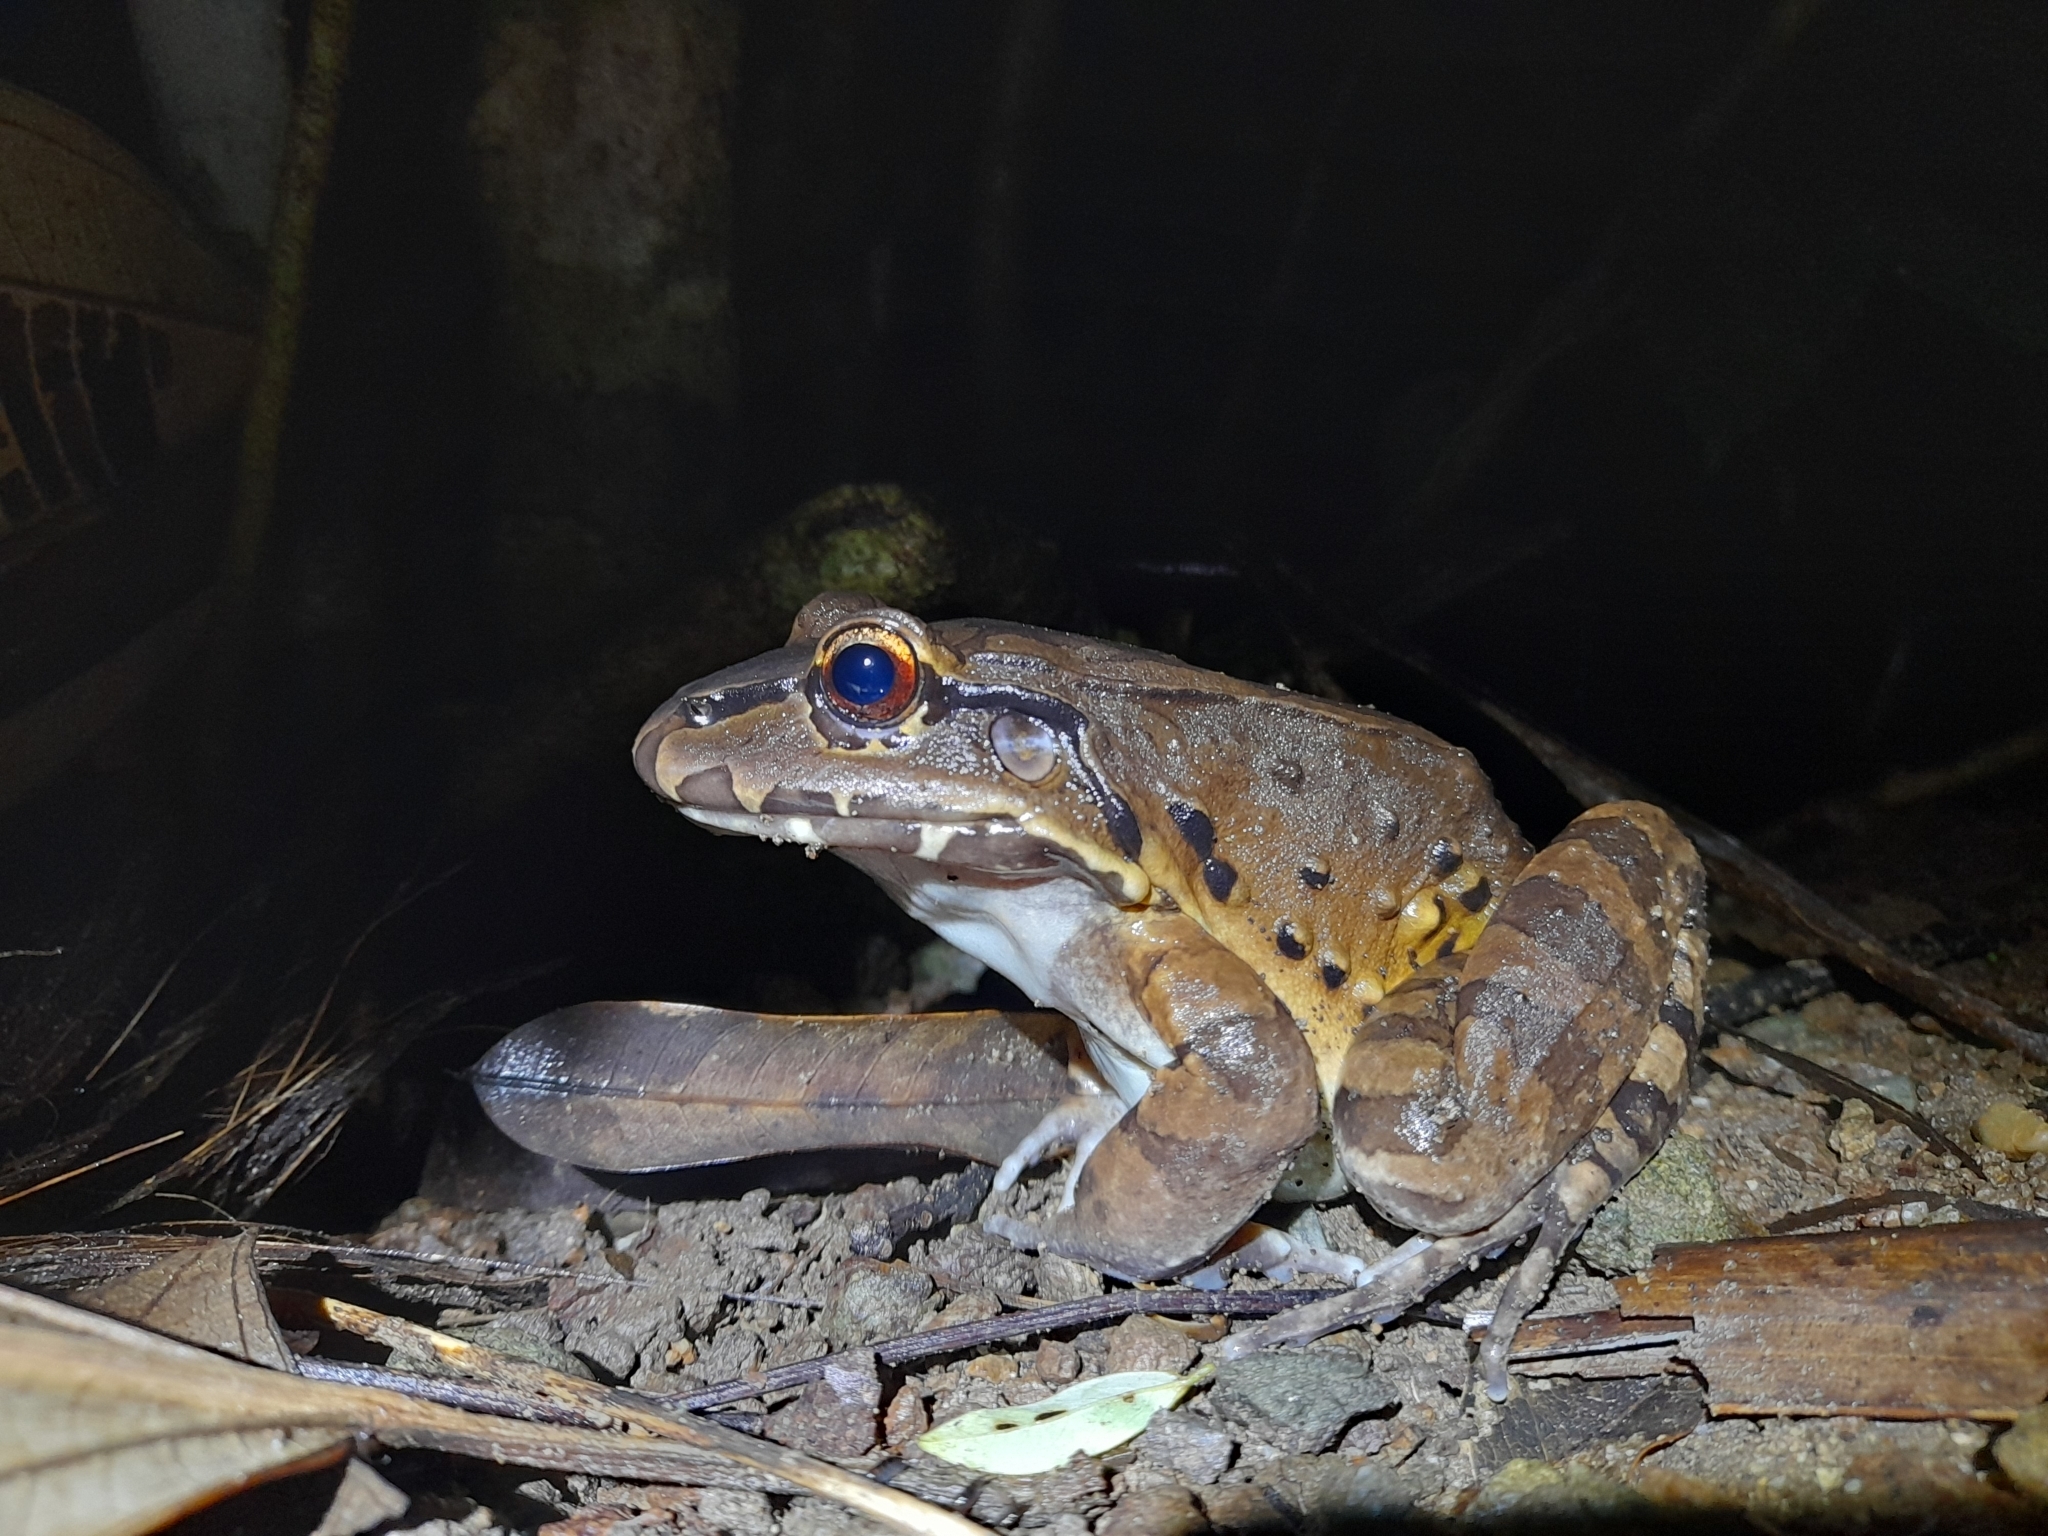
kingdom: Animalia
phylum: Chordata
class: Amphibia
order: Anura
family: Leptodactylidae
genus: Leptodactylus
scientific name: Leptodactylus savagei
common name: Savage's thin-toed frog
